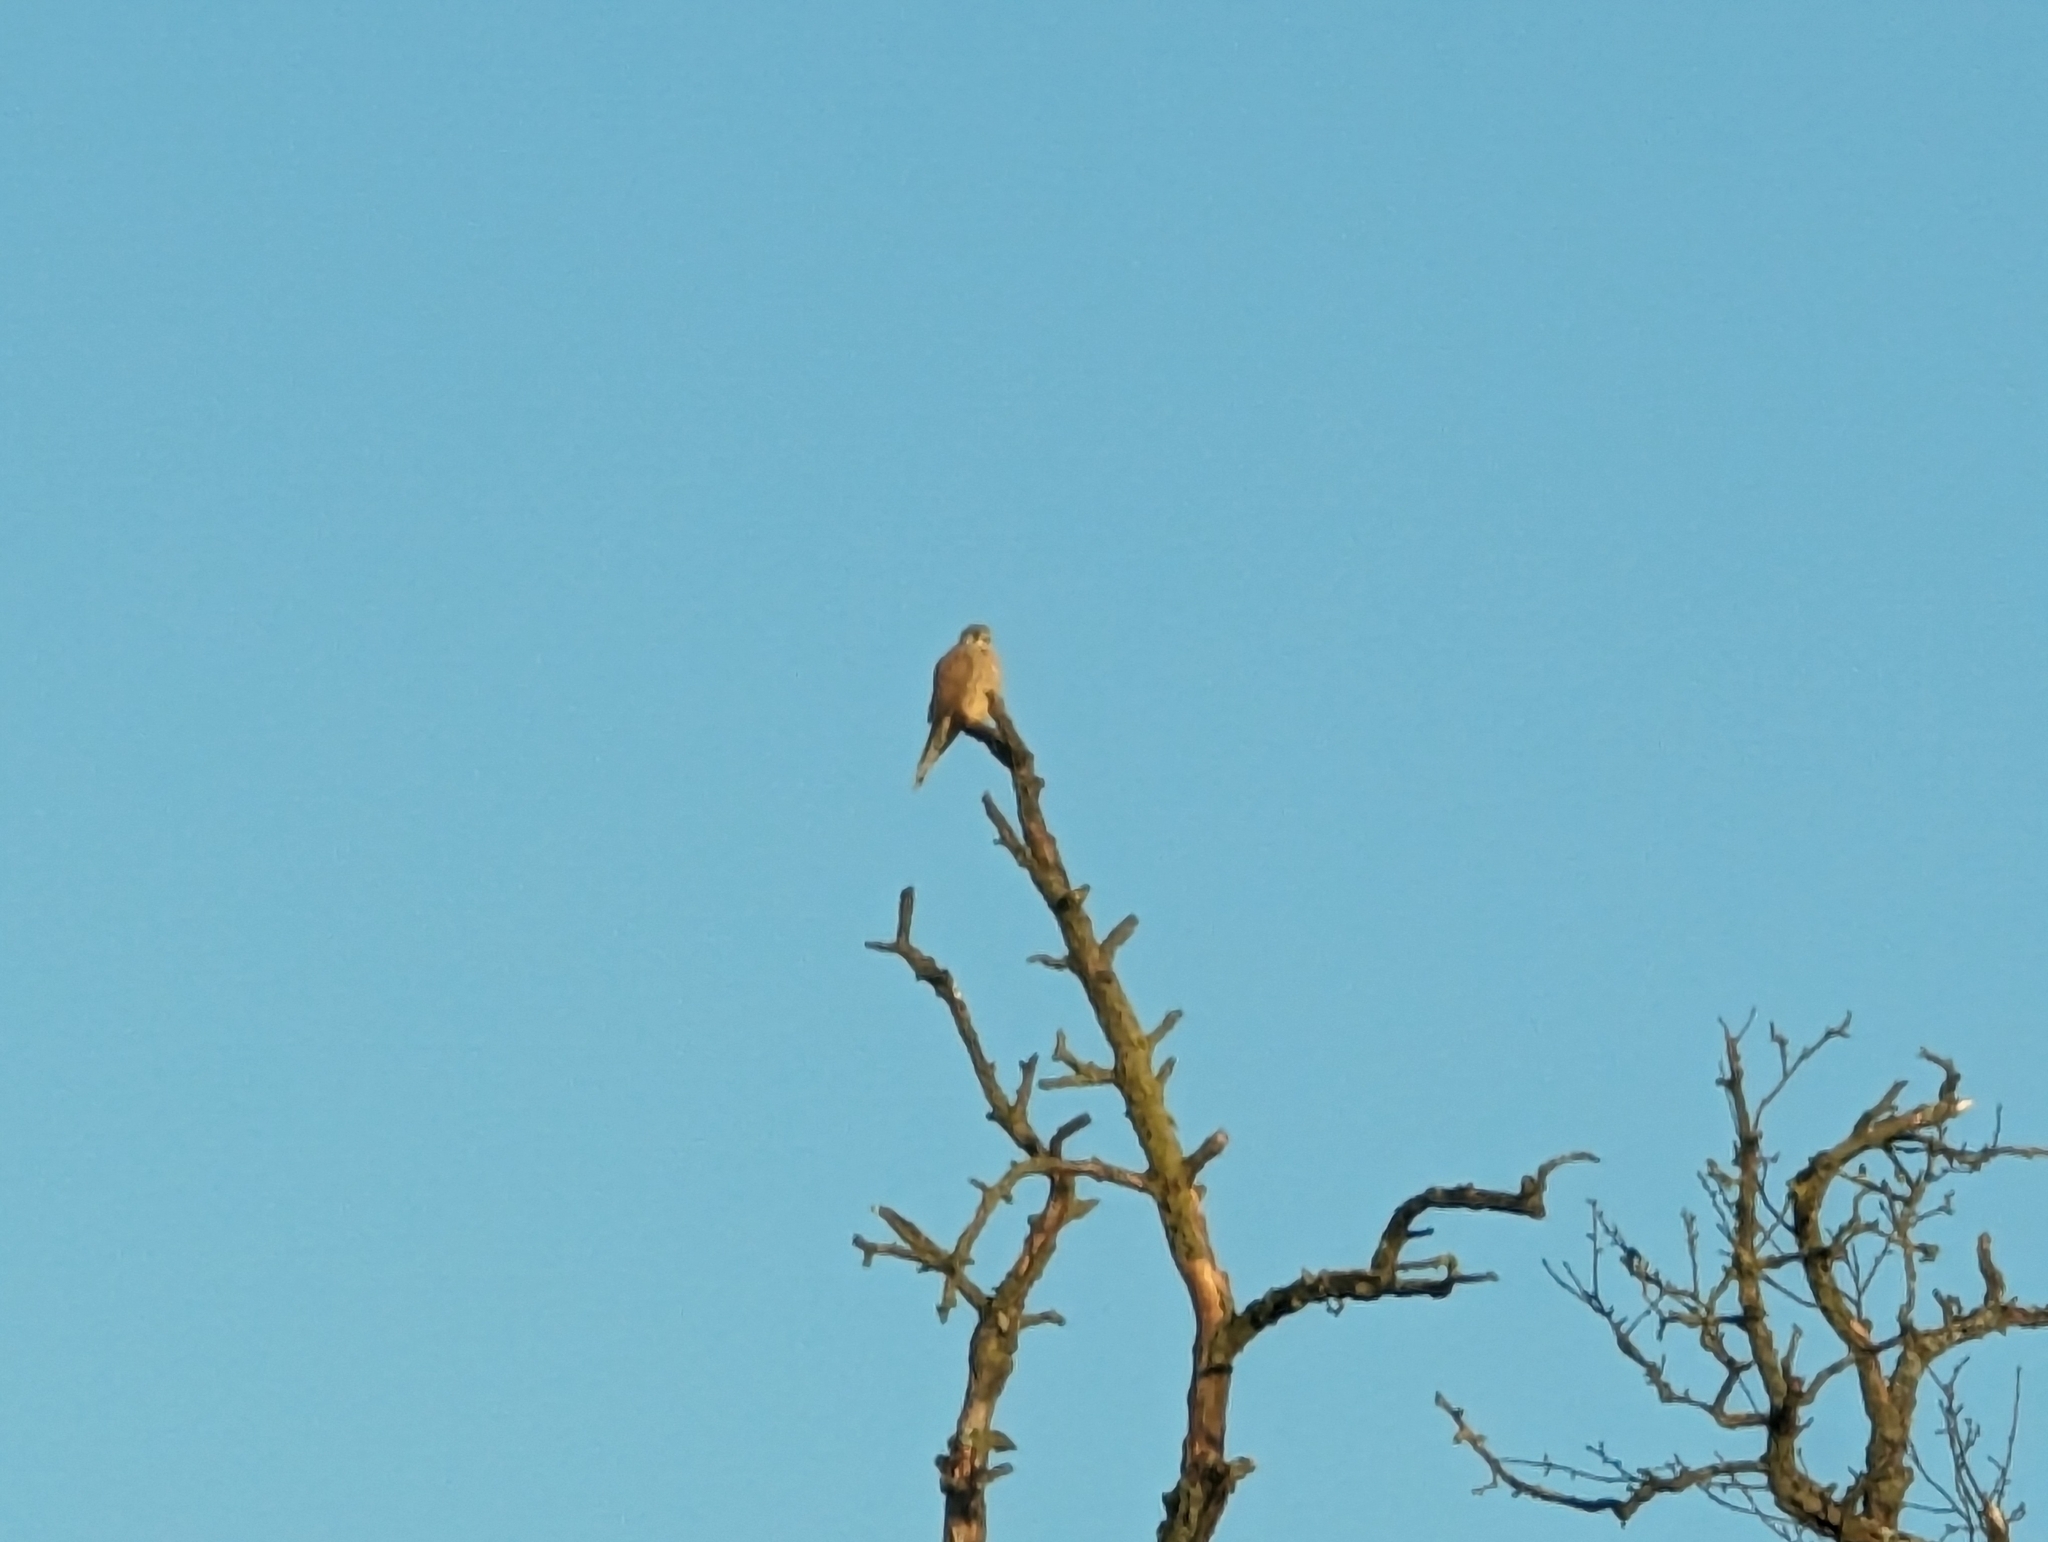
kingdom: Animalia
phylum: Chordata
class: Aves
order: Falconiformes
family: Falconidae
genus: Falco
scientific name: Falco tinnunculus
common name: Common kestrel
